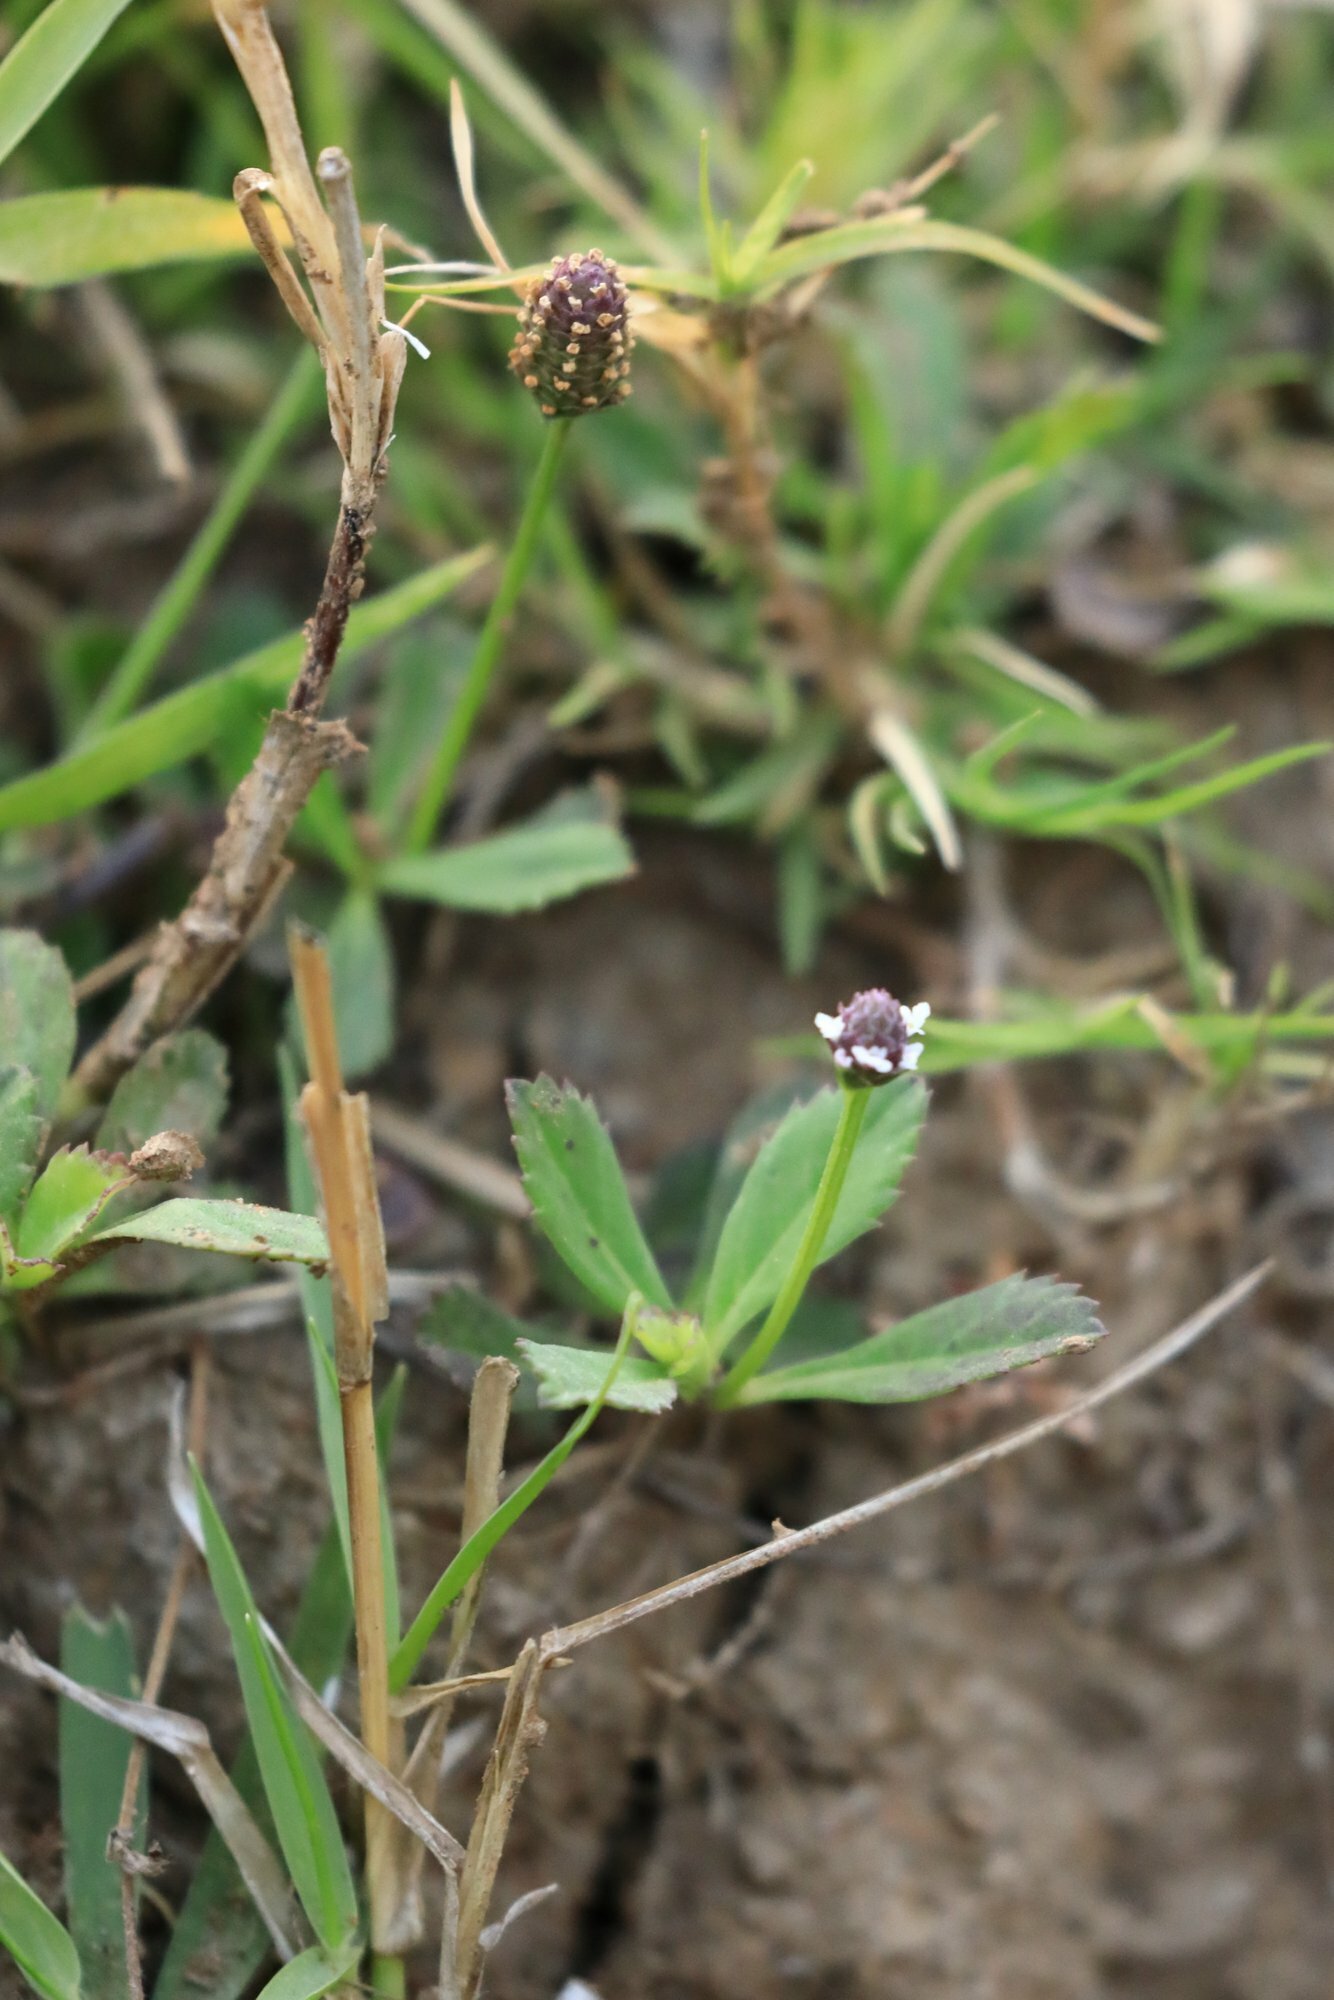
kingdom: Plantae
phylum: Tracheophyta
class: Magnoliopsida
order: Lamiales
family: Verbenaceae
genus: Phyla
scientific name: Phyla nodiflora
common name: Frogfruit
